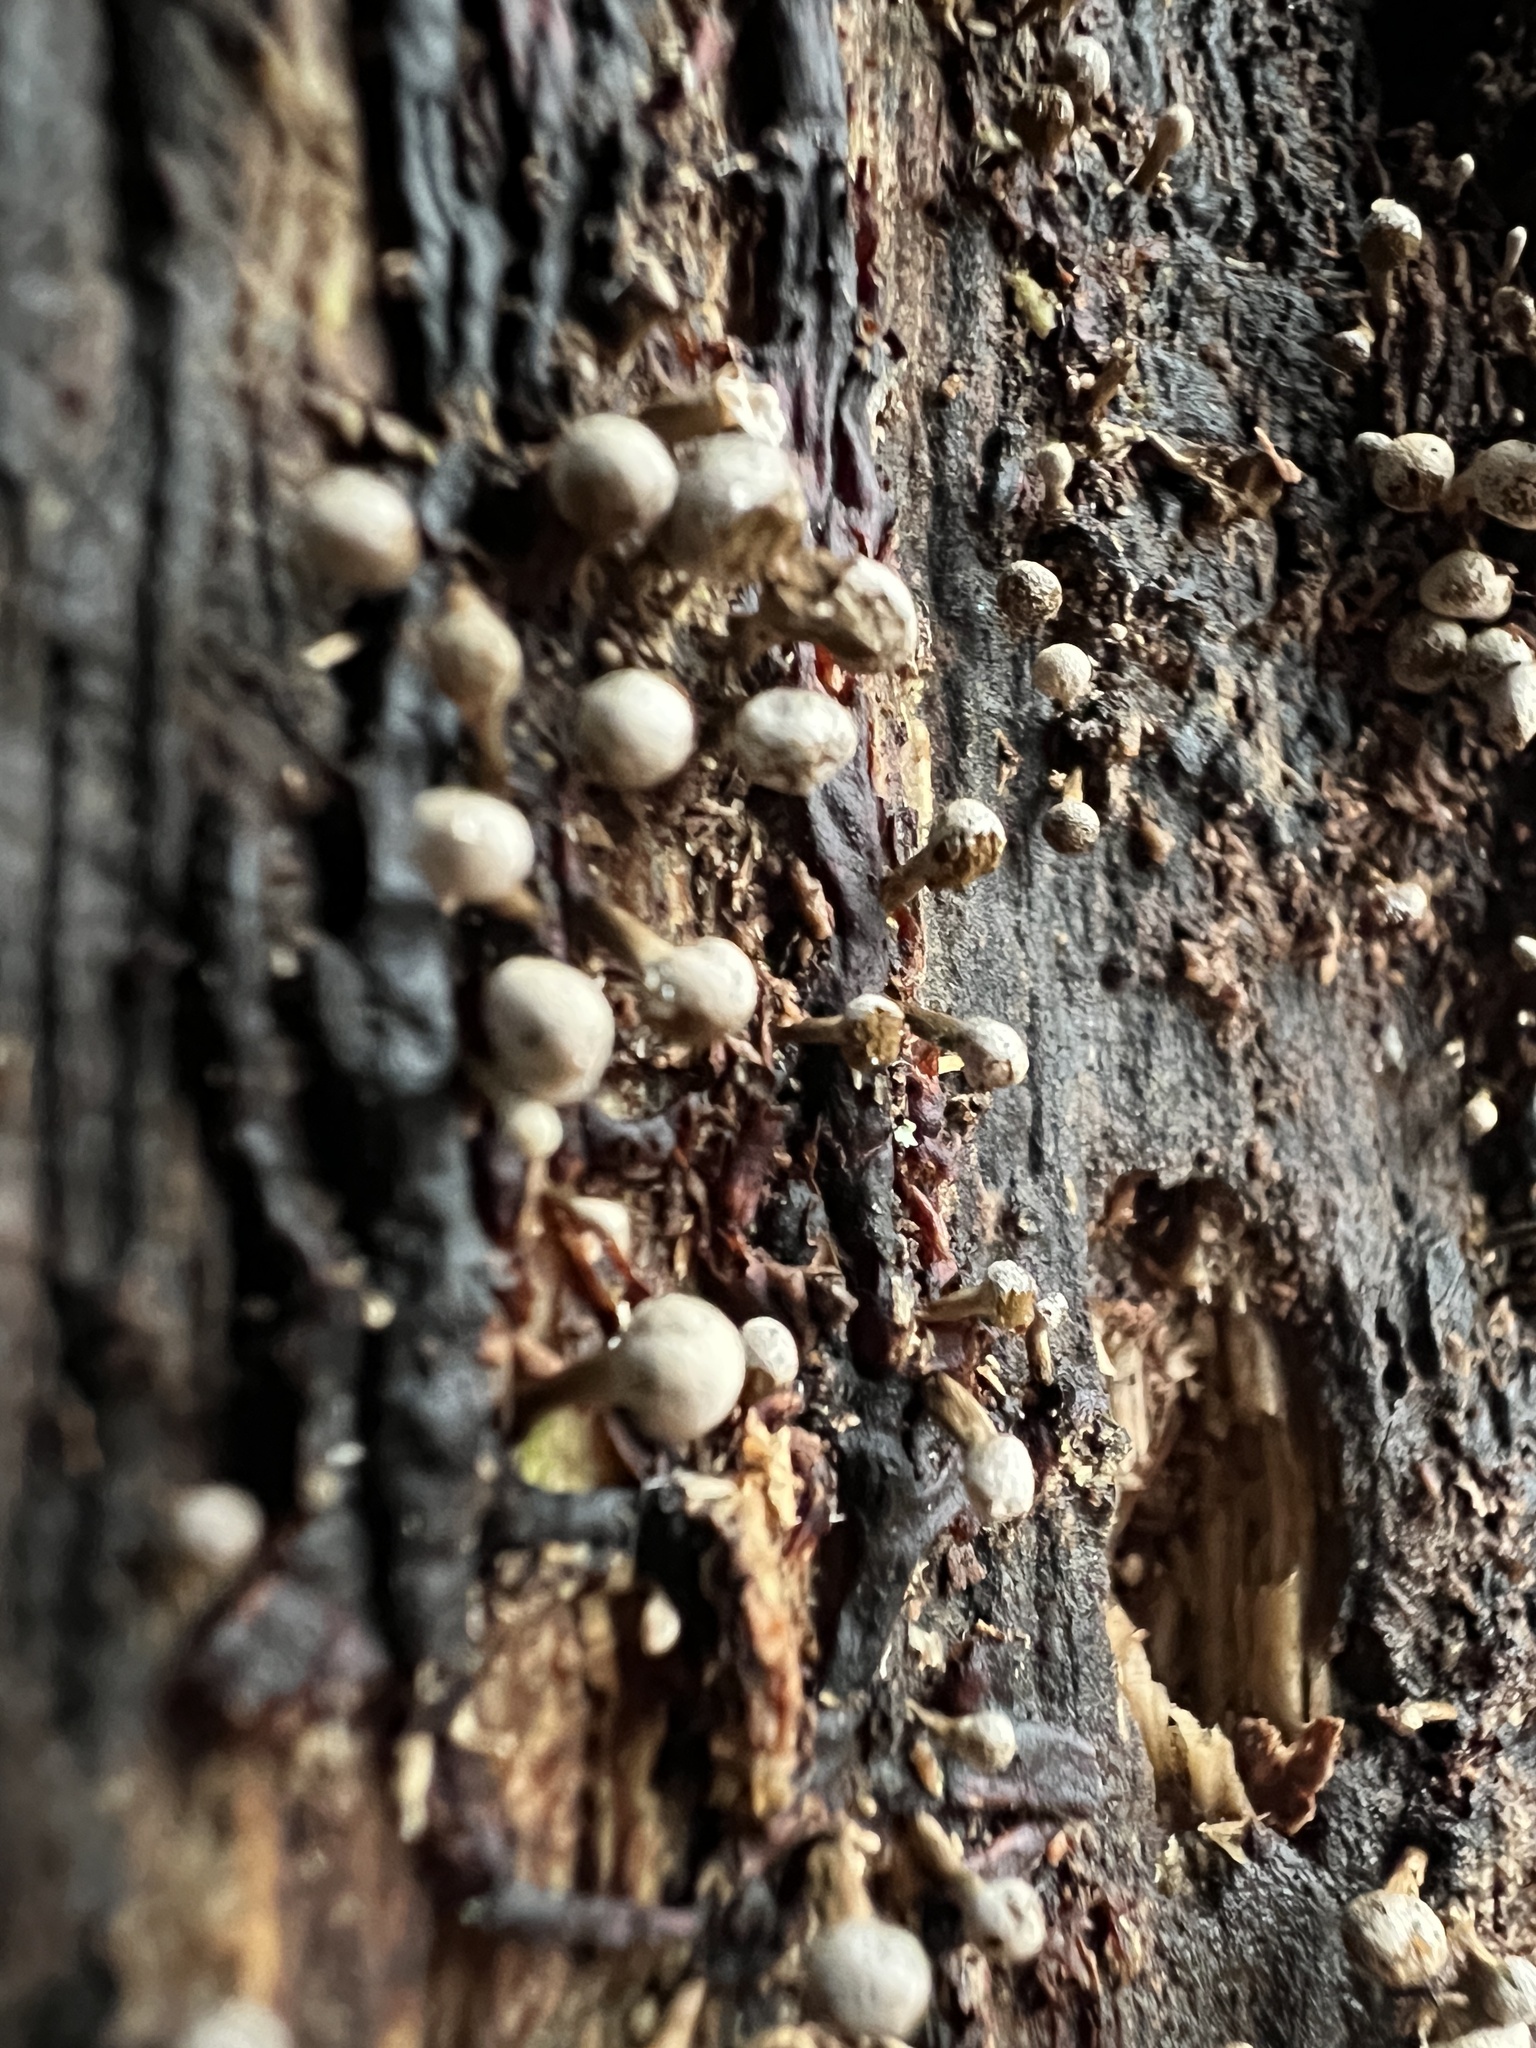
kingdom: Fungi
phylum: Basidiomycota
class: Atractiellomycetes
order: Atractiellales
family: Phleogenaceae
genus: Phleogena
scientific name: Phleogena faginea
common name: Fenugreek stalkball
